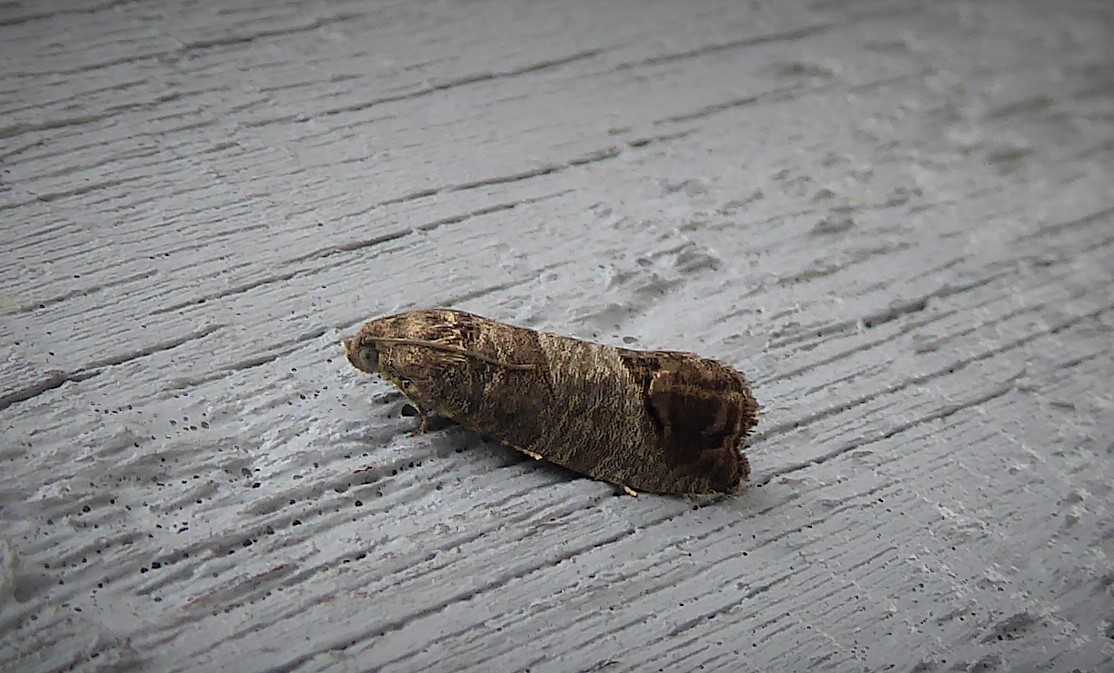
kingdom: Animalia
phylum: Arthropoda
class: Insecta
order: Lepidoptera
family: Tortricidae
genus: Cydia
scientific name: Cydia pomonella
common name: Codling moth
